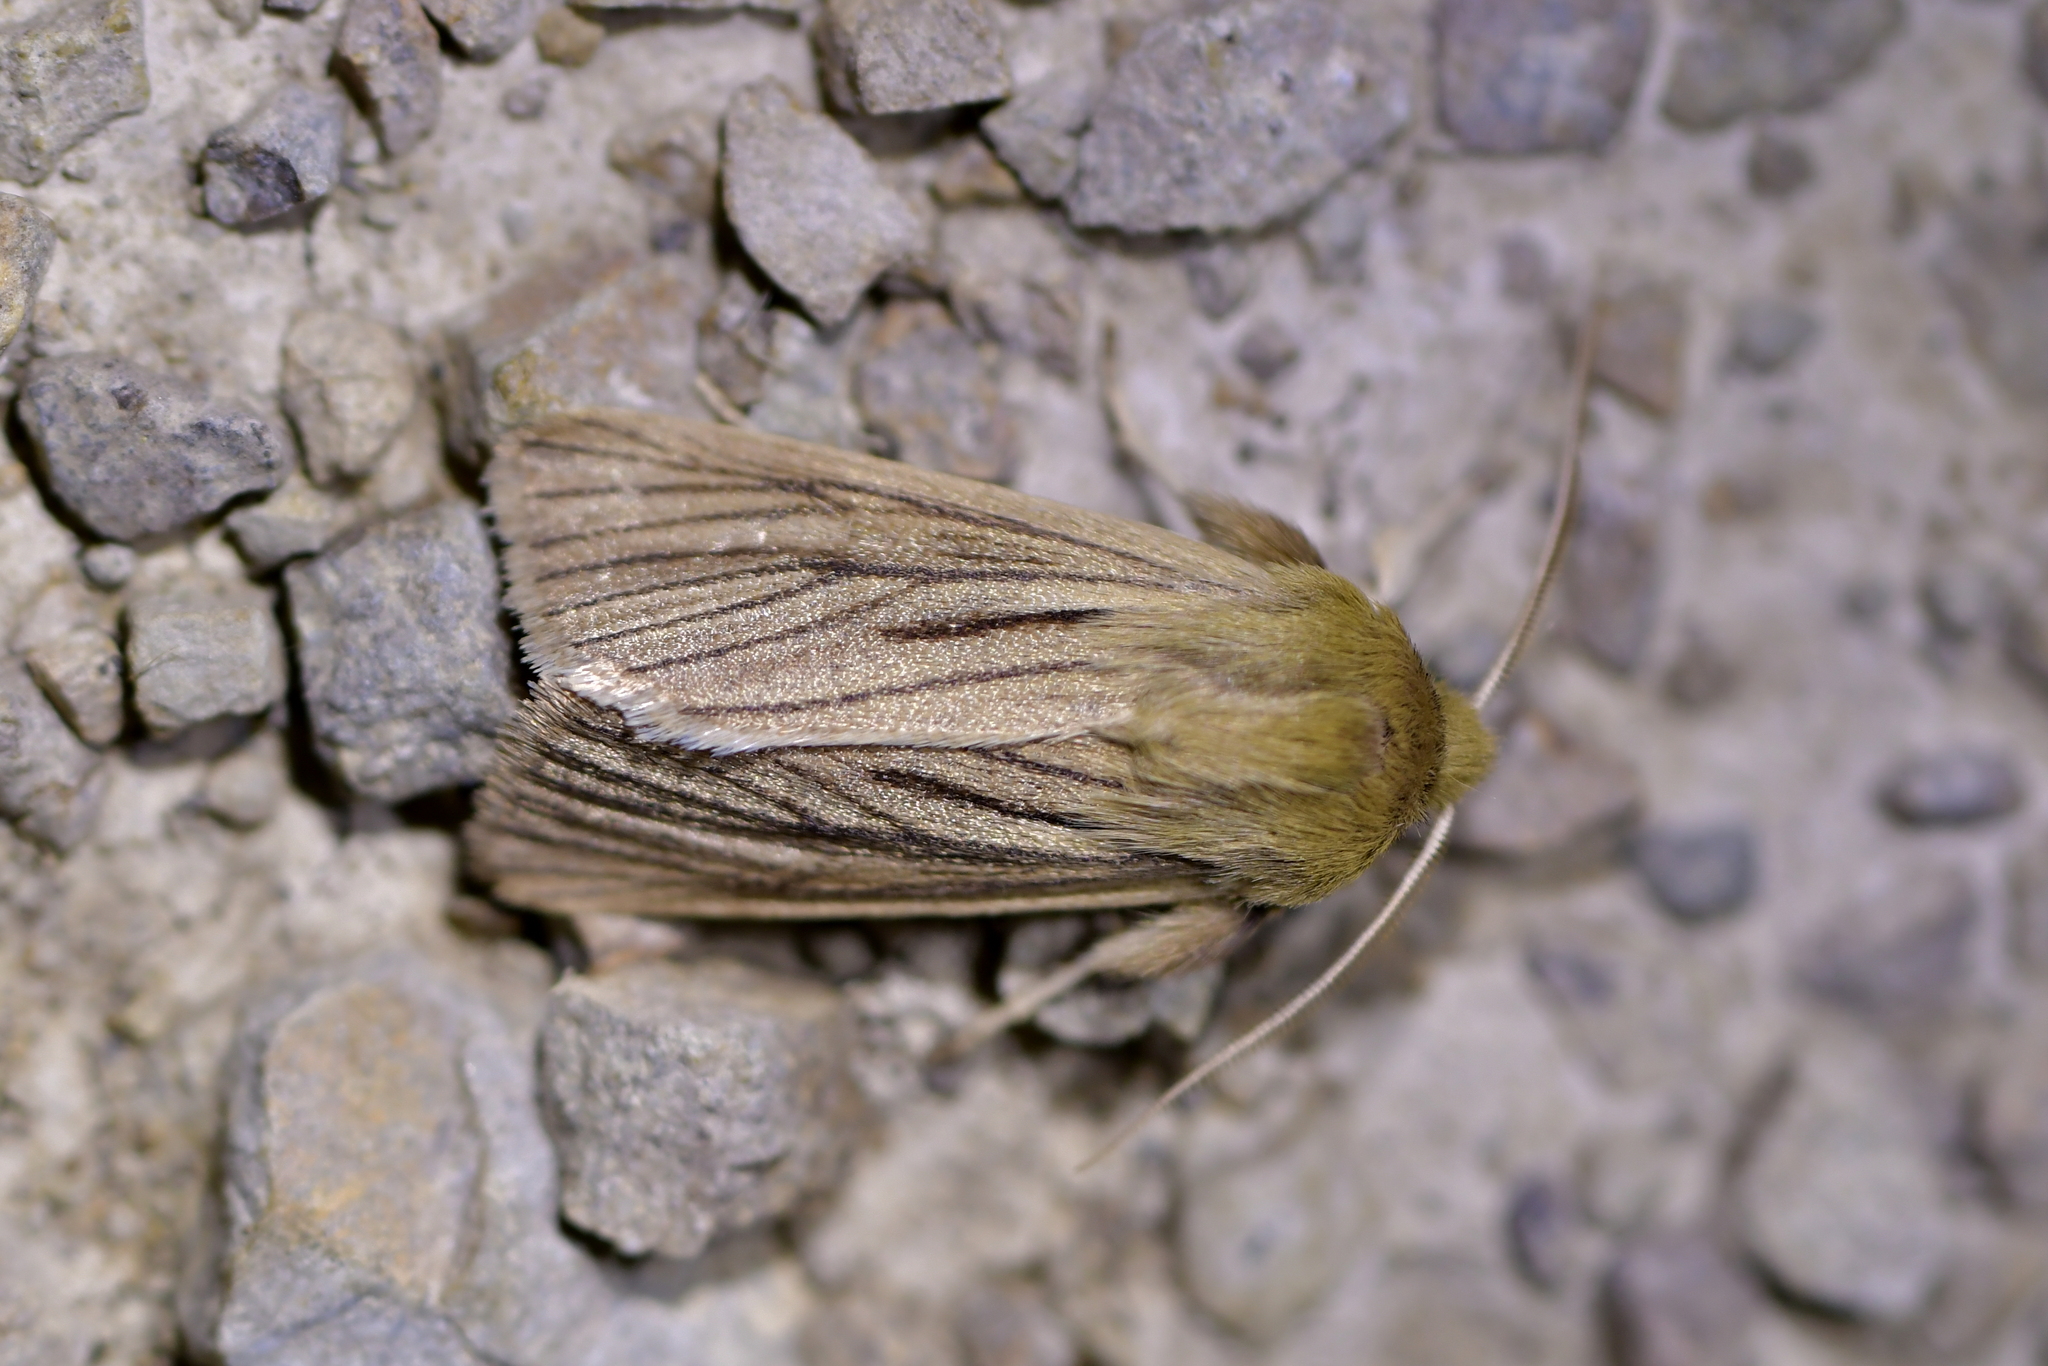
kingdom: Animalia
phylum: Arthropoda
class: Insecta
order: Lepidoptera
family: Noctuidae
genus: Ichneutica
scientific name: Ichneutica
